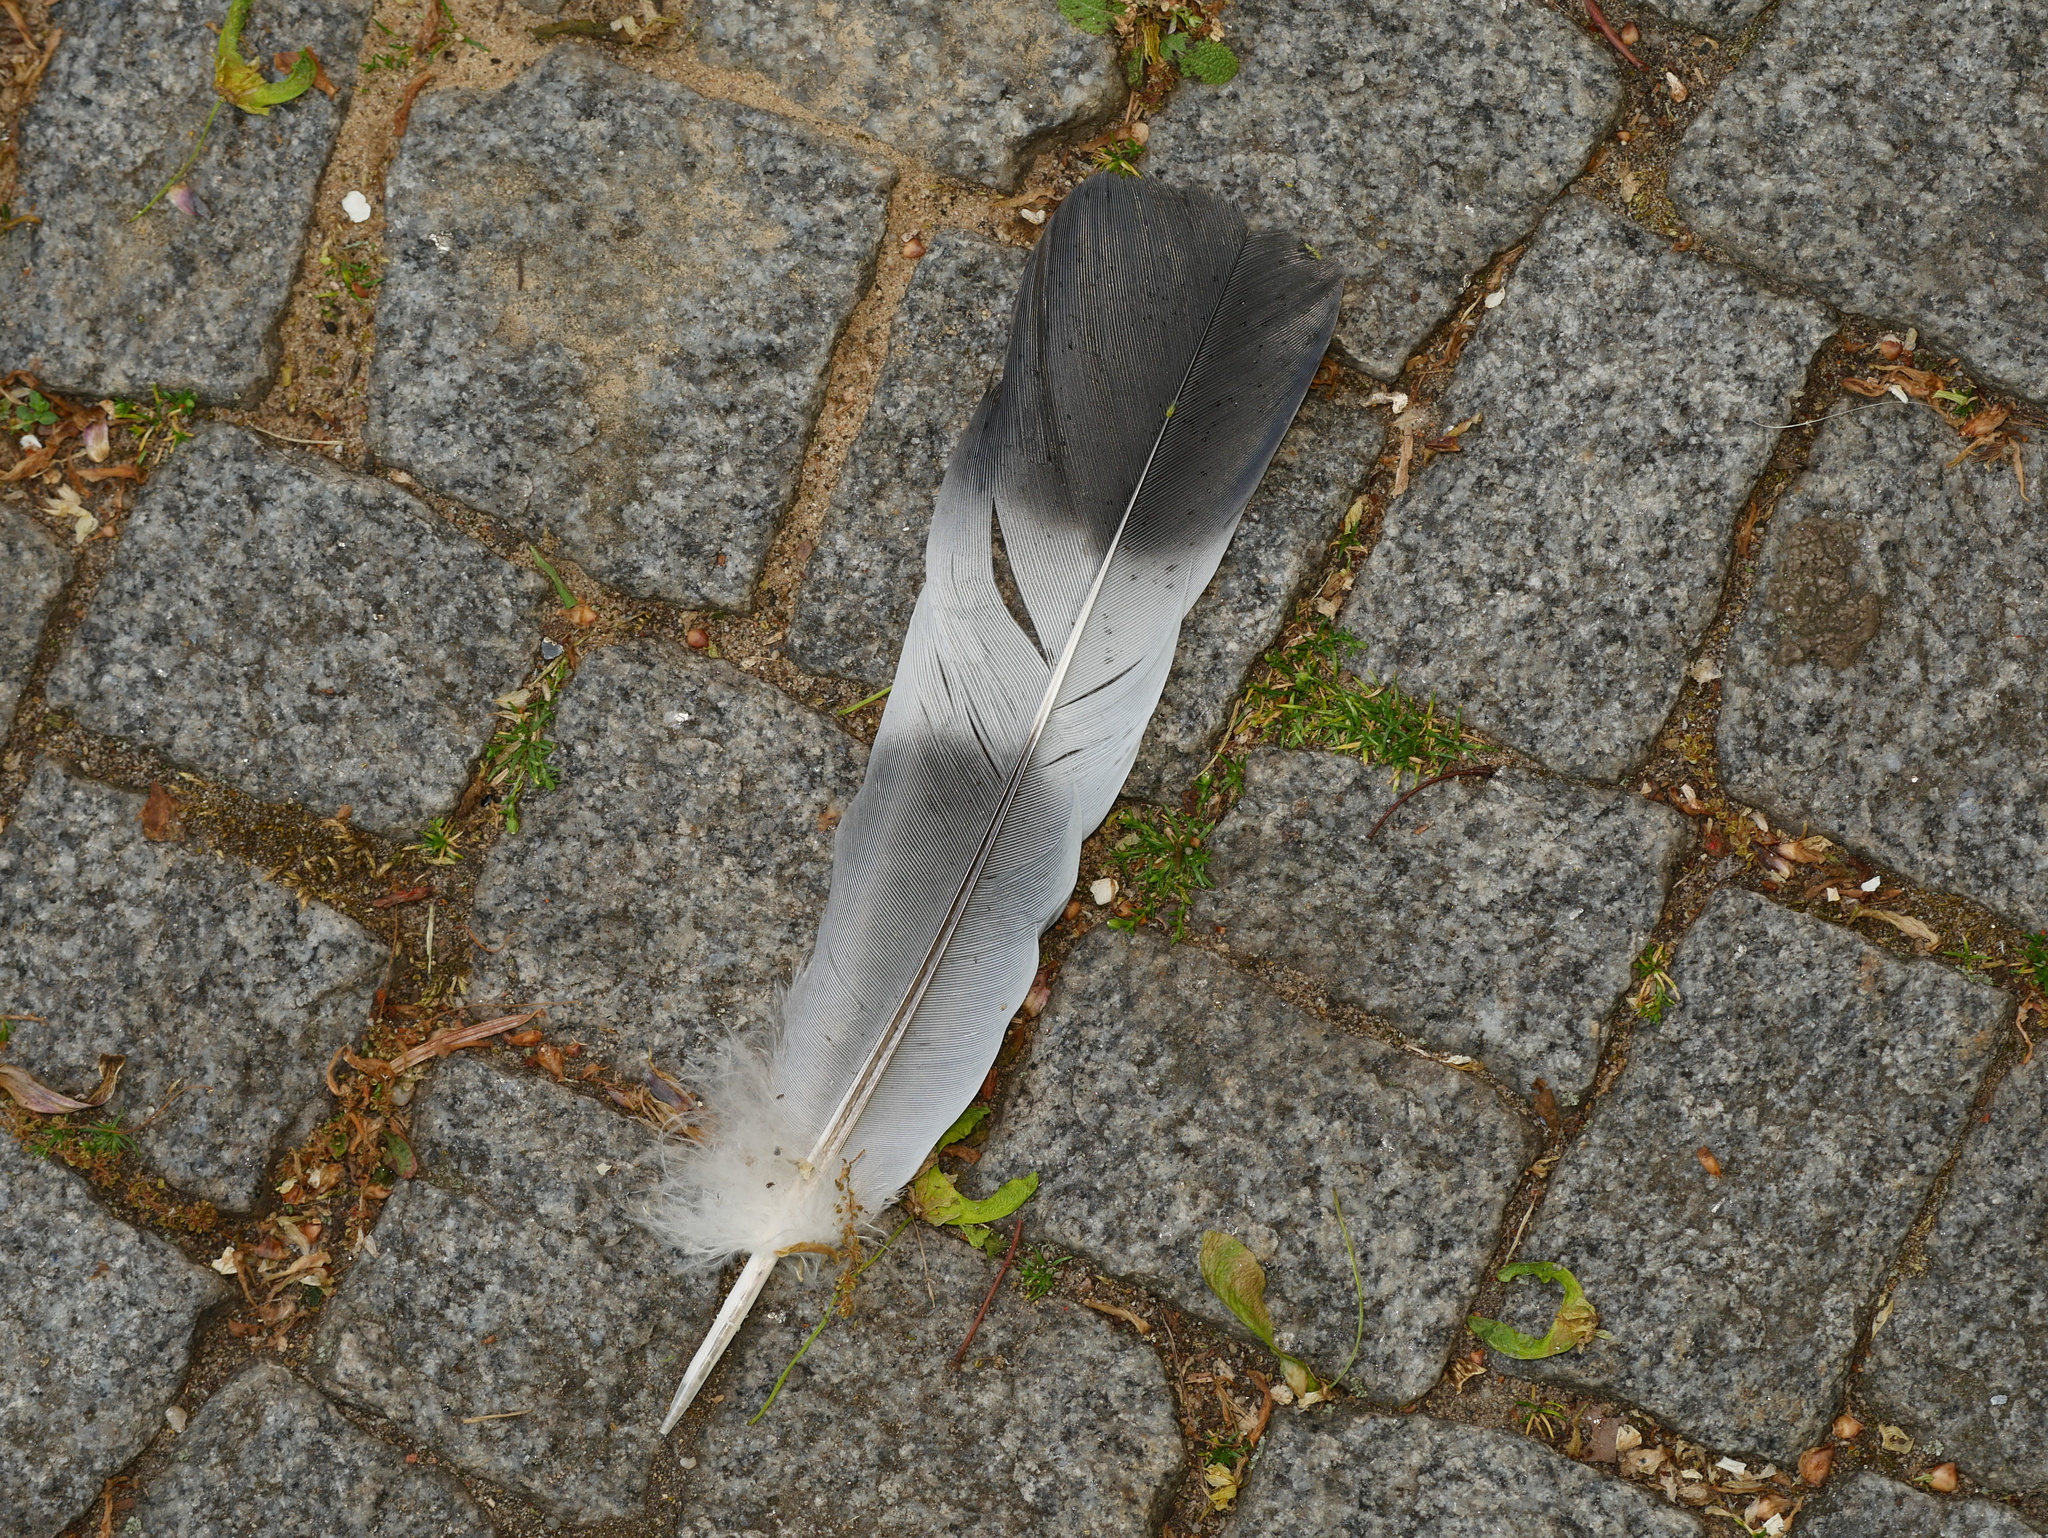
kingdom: Animalia
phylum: Chordata
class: Aves
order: Columbiformes
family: Columbidae
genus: Columba
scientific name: Columba palumbus
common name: Common wood pigeon
